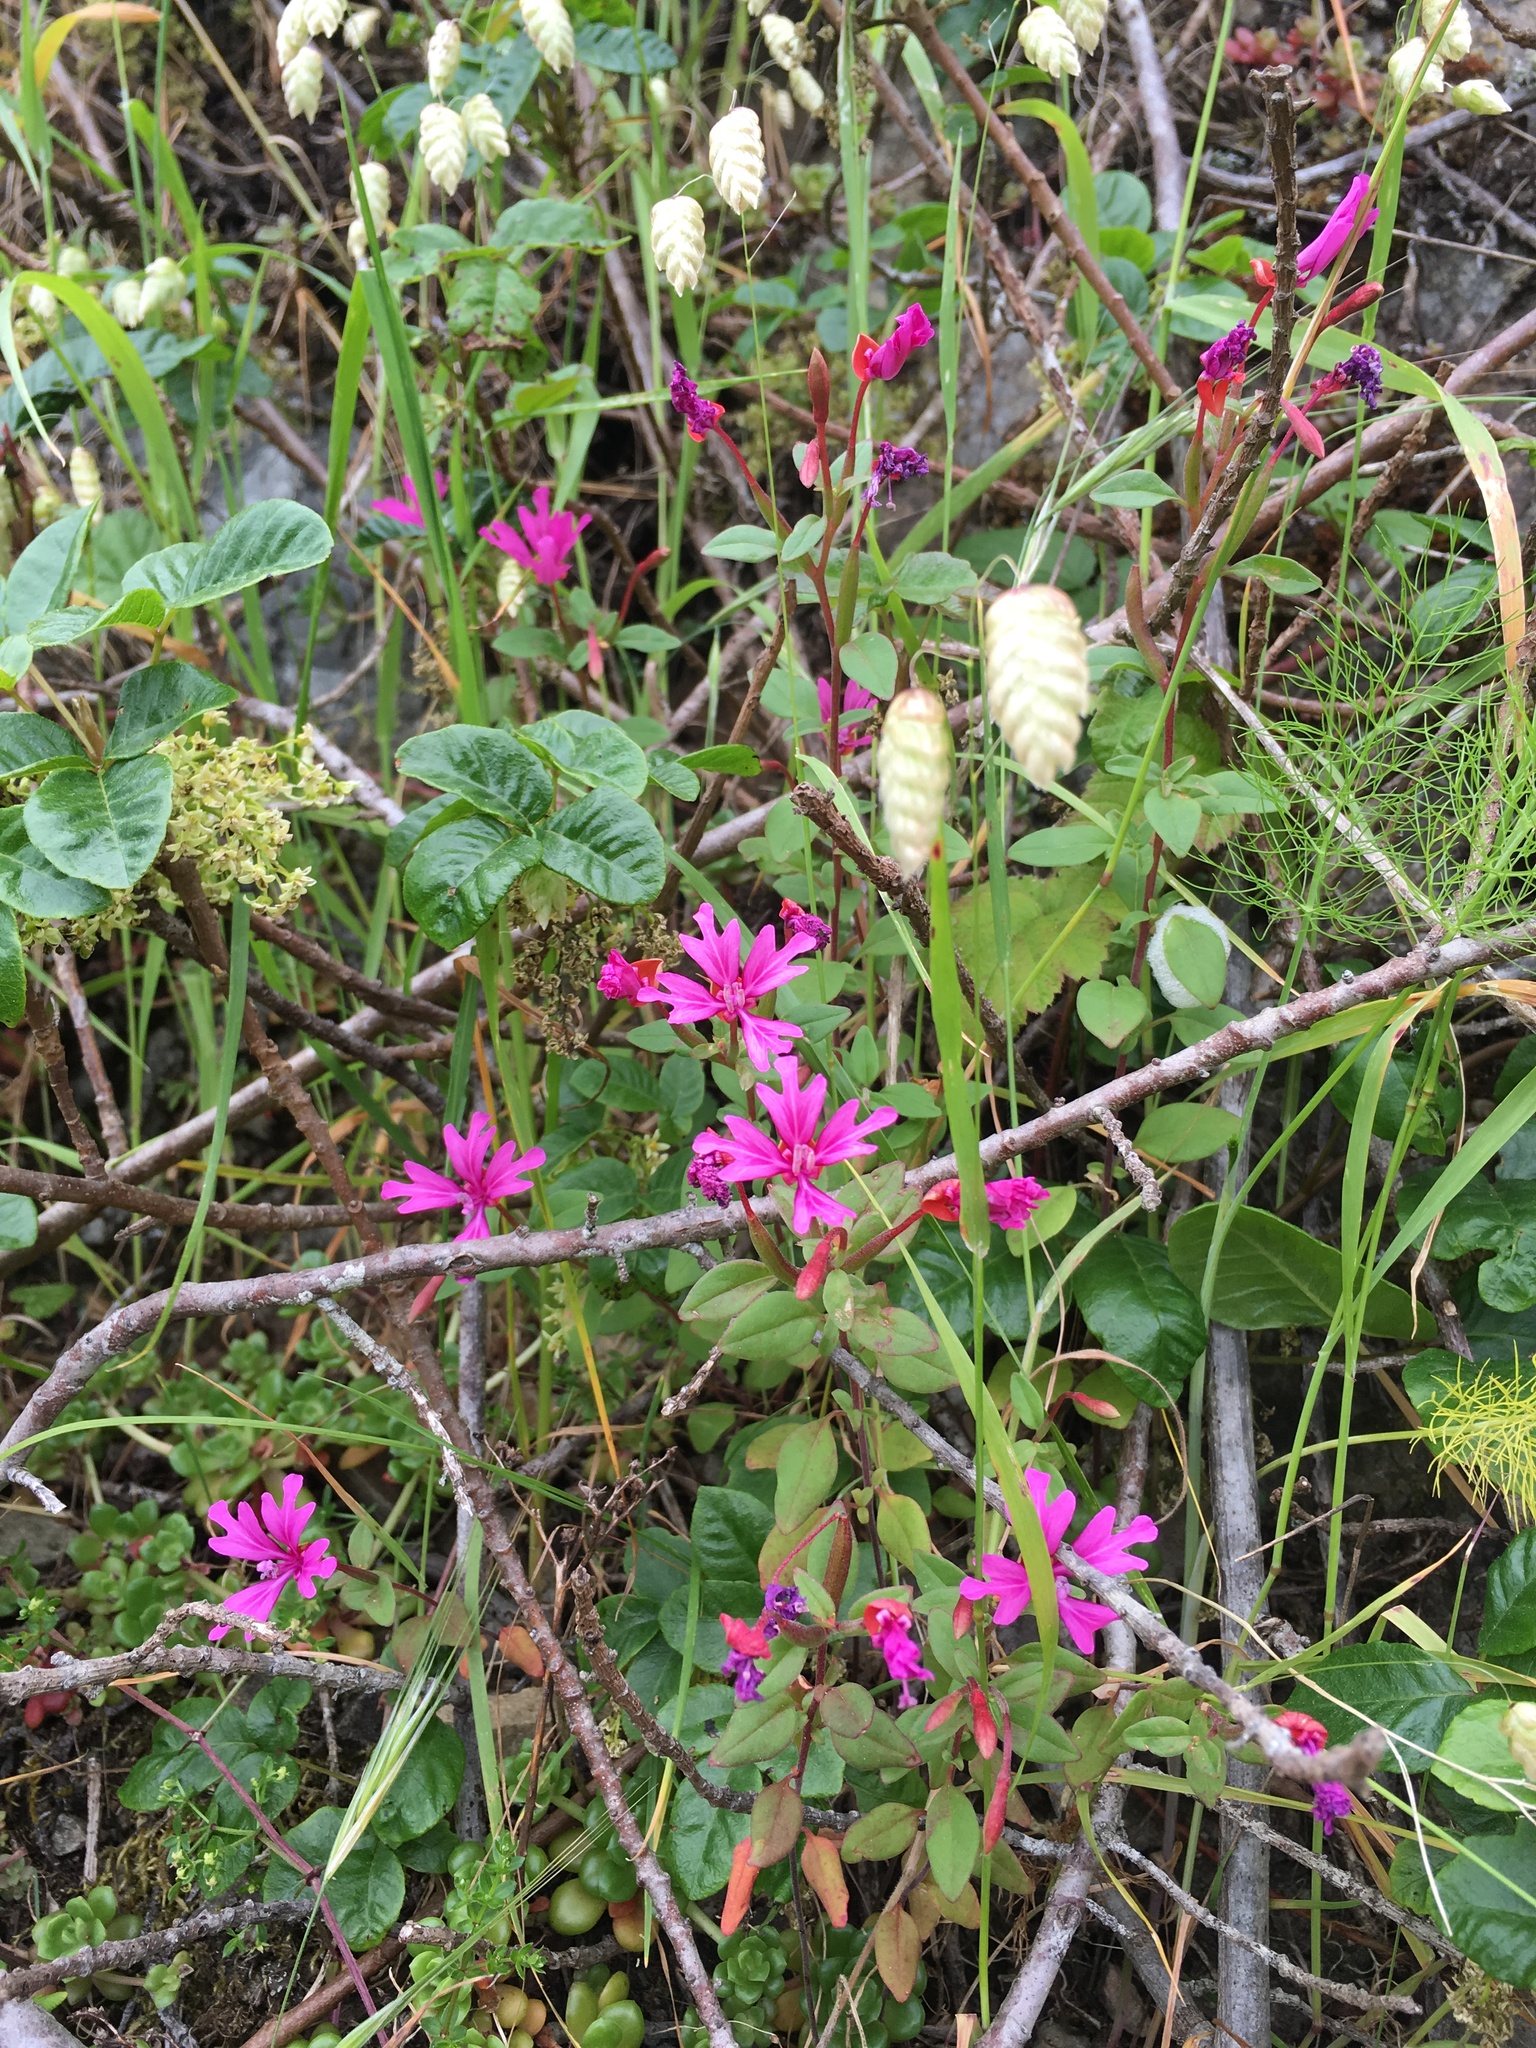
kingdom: Plantae
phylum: Tracheophyta
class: Magnoliopsida
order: Myrtales
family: Onagraceae
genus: Clarkia
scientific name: Clarkia concinna
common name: Red-ribbons
